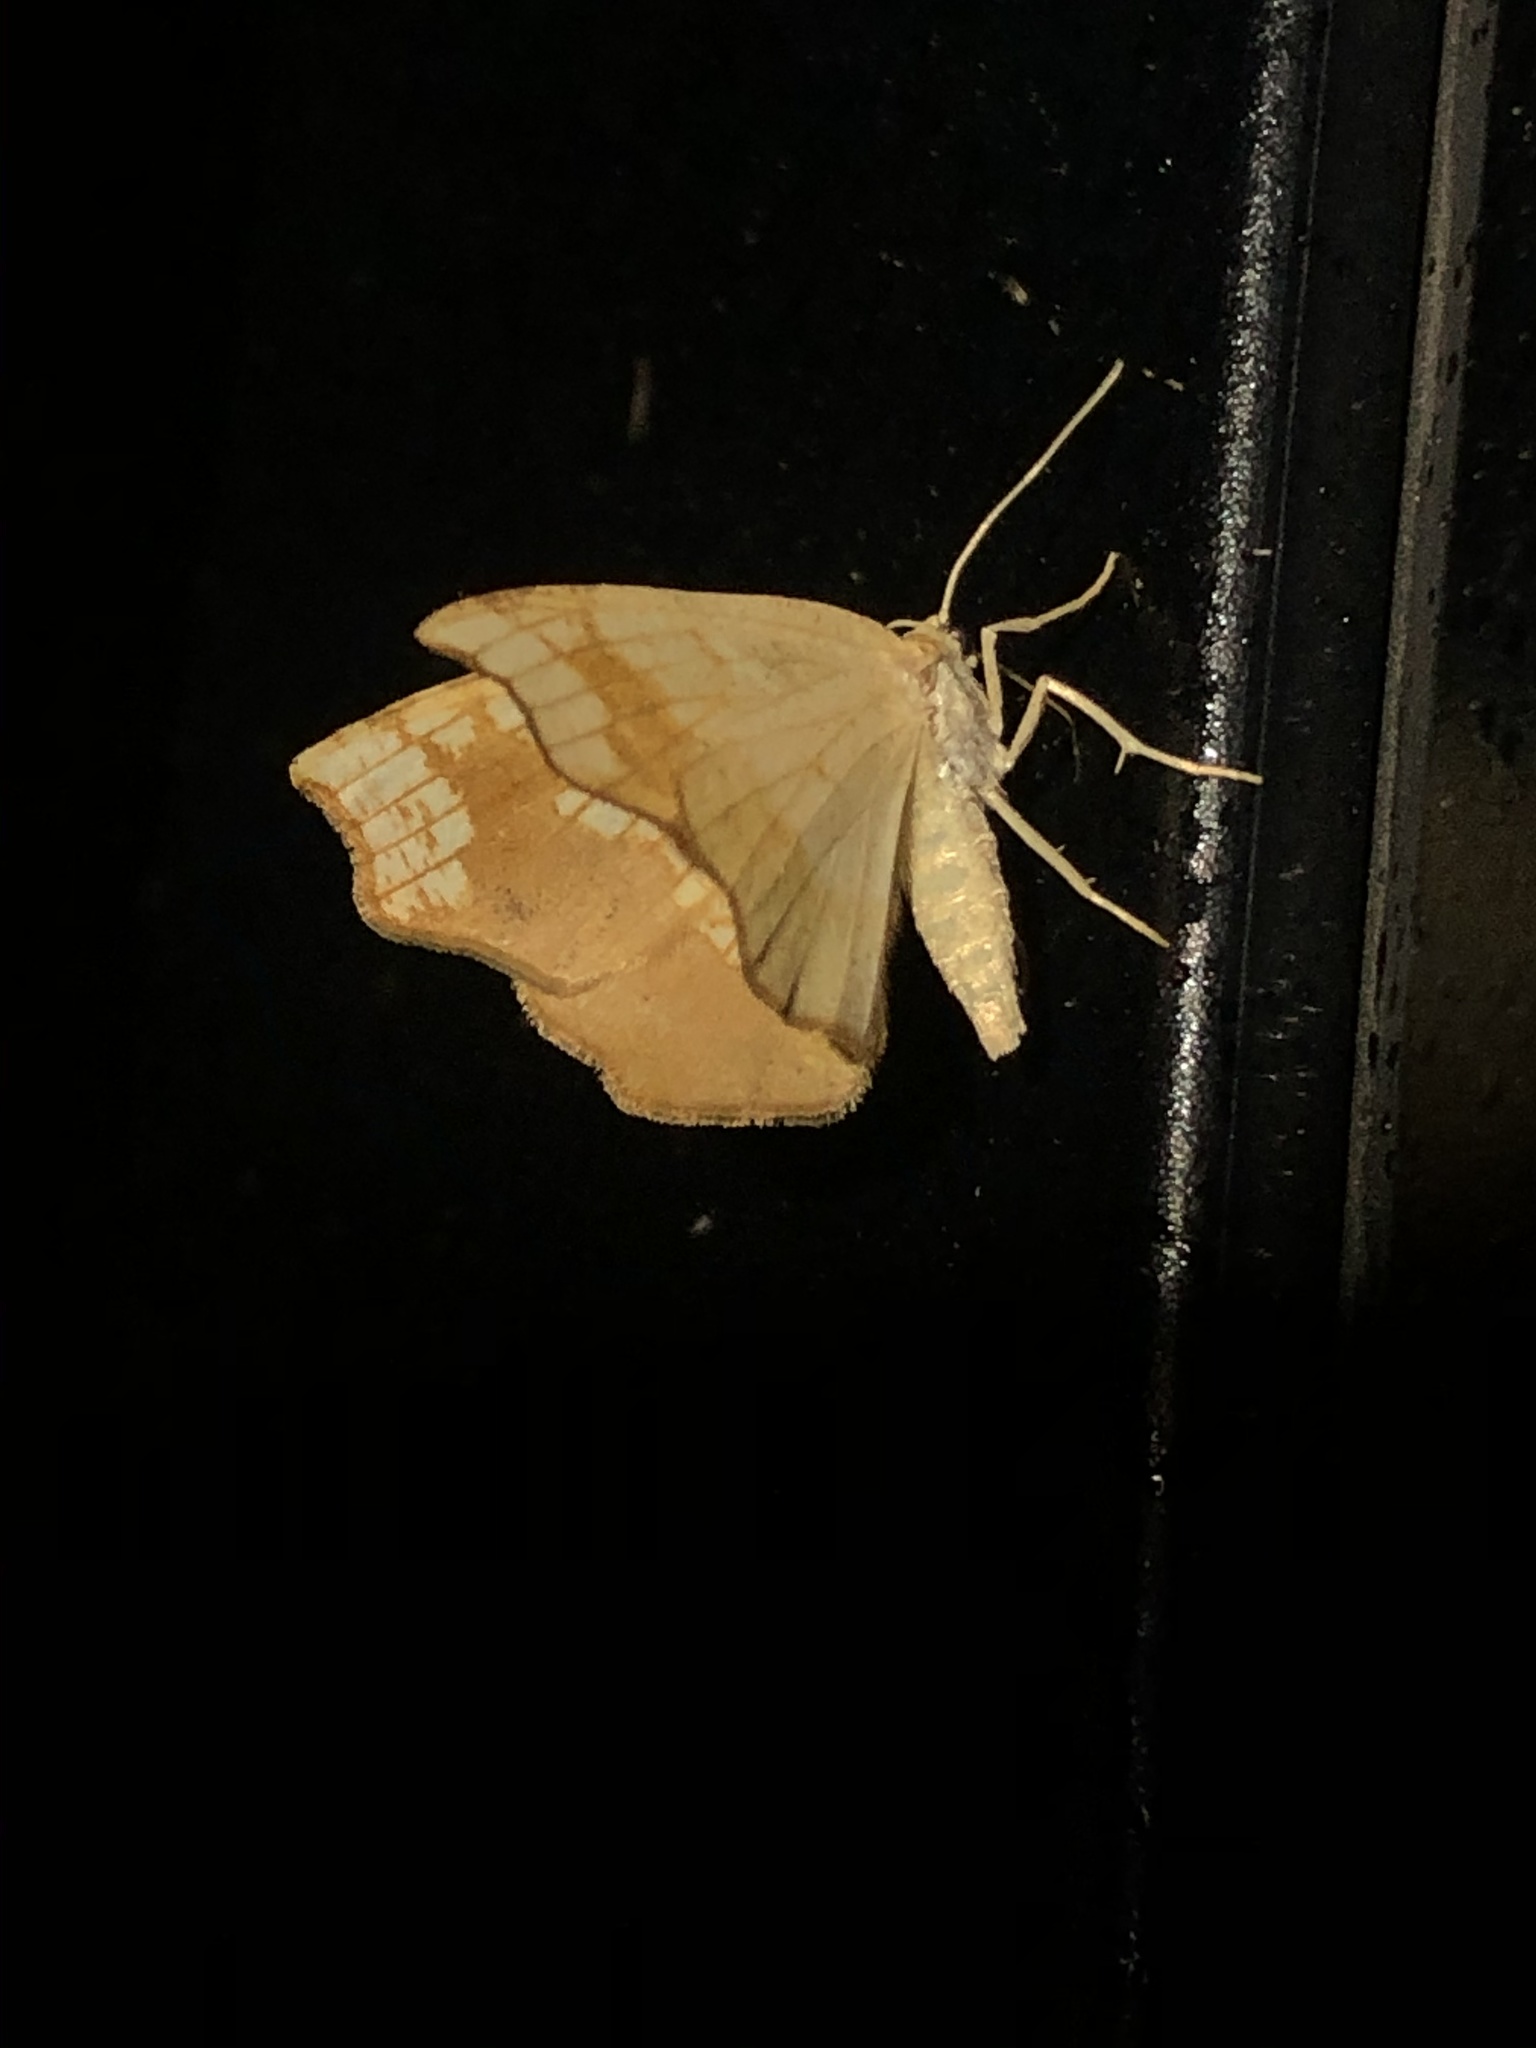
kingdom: Animalia
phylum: Arthropoda
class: Insecta
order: Lepidoptera
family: Geometridae
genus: Nematocampa
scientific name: Nematocampa resistaria
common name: Horned spanworm moth
